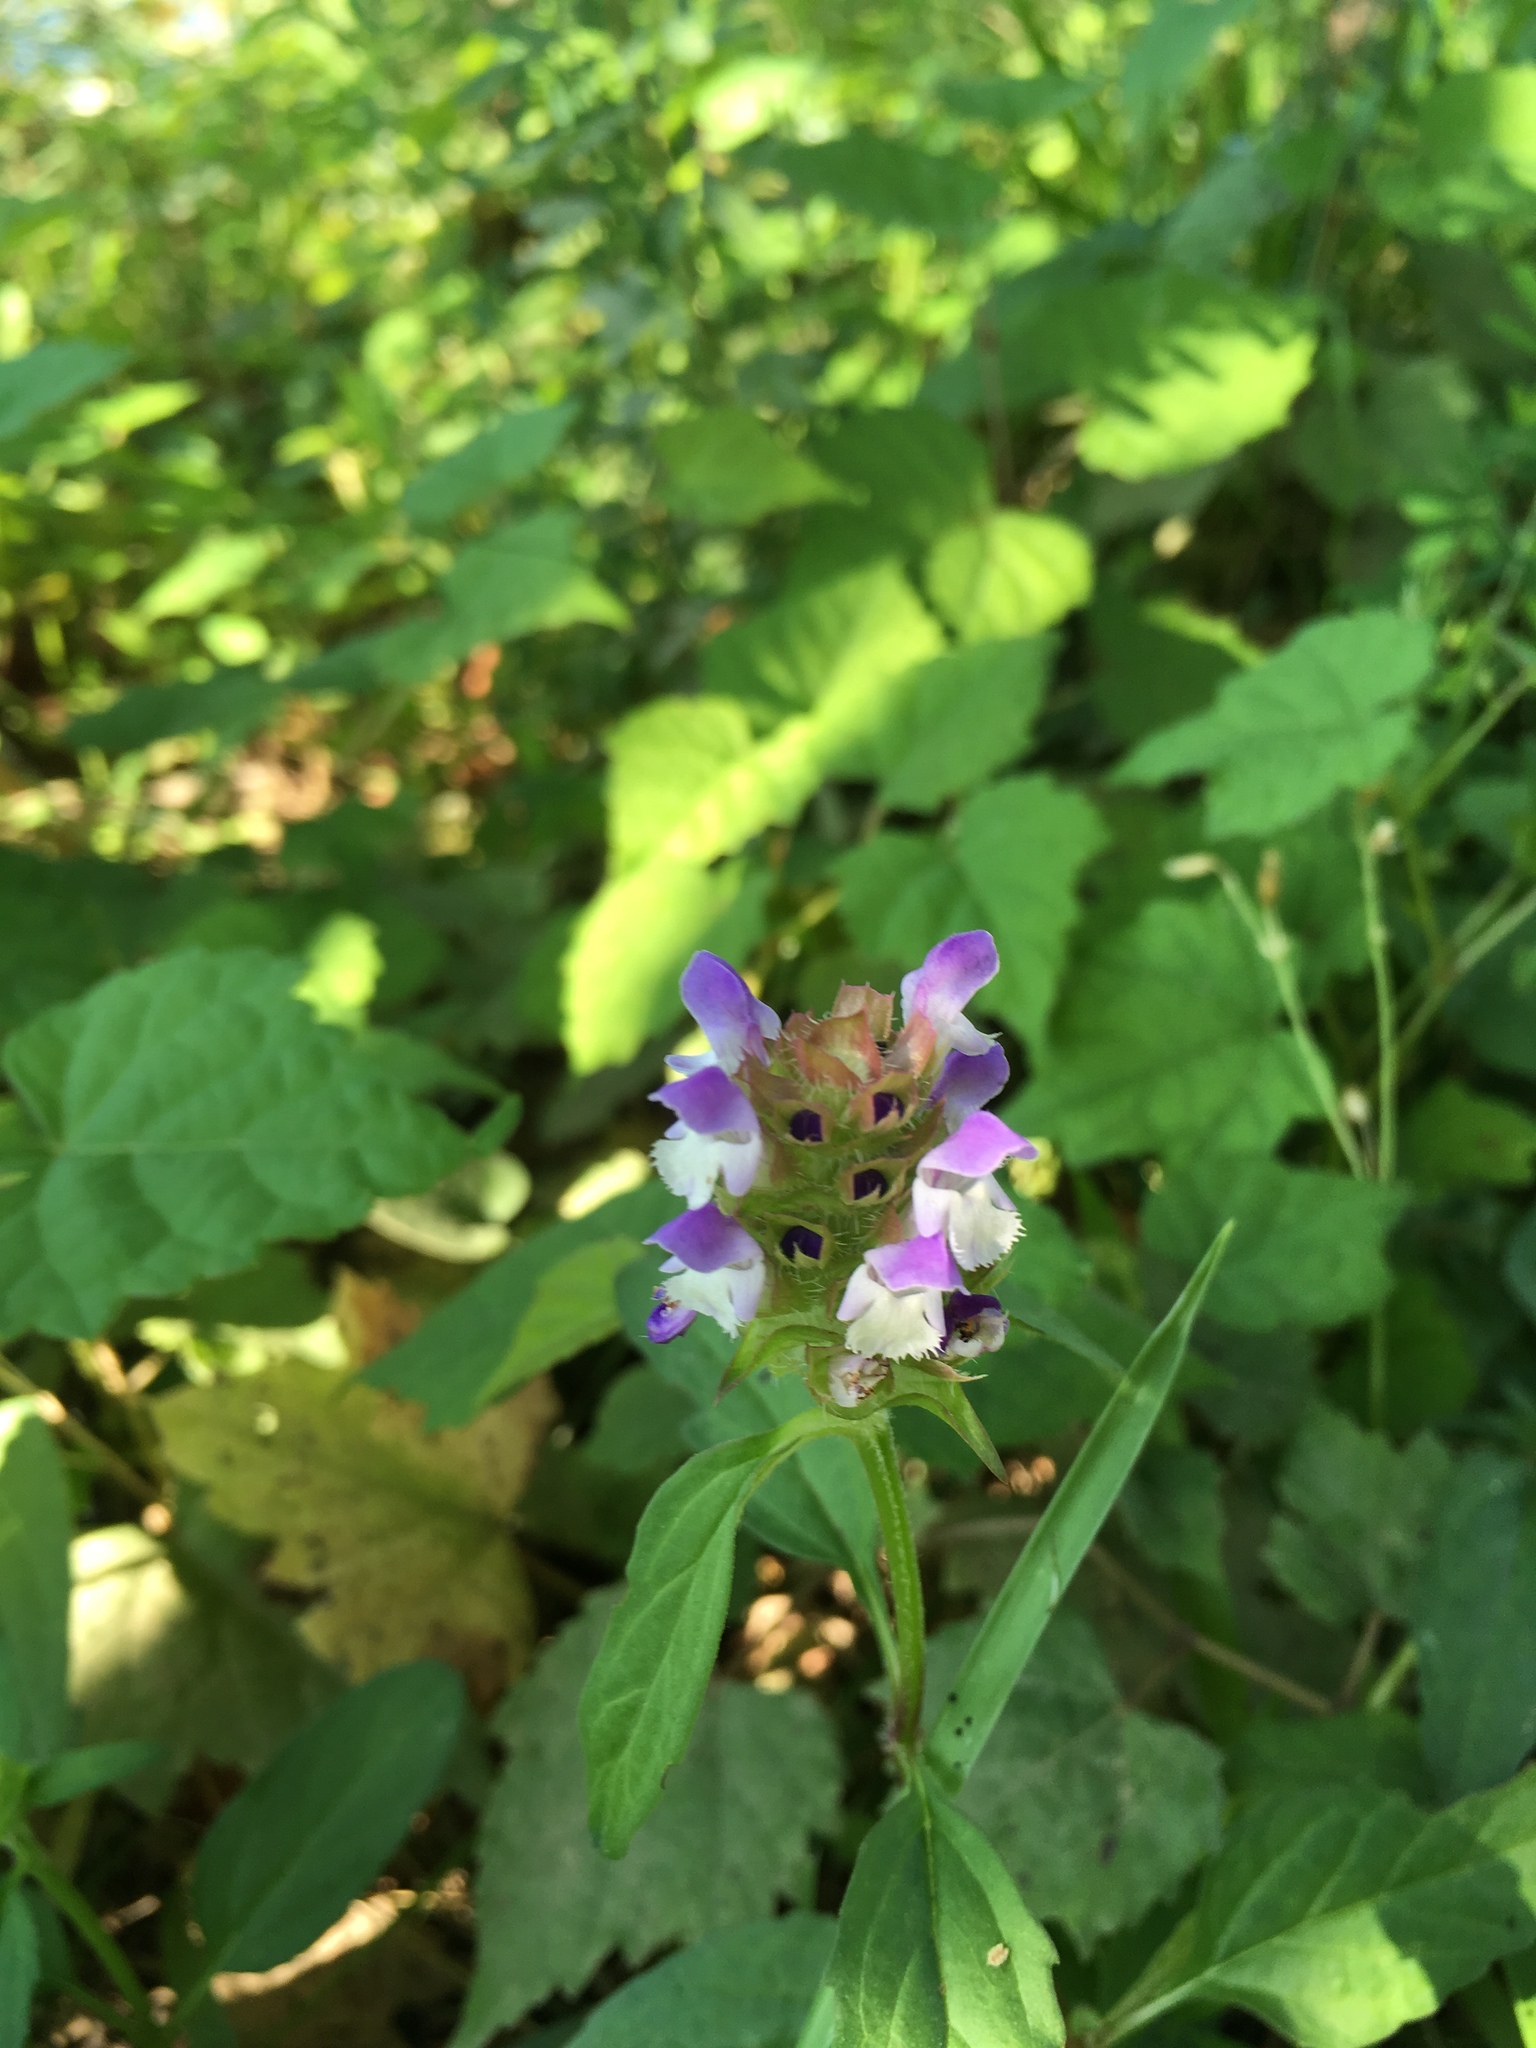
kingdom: Plantae
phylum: Tracheophyta
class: Magnoliopsida
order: Lamiales
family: Lamiaceae
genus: Prunella
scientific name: Prunella vulgaris
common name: Heal-all
